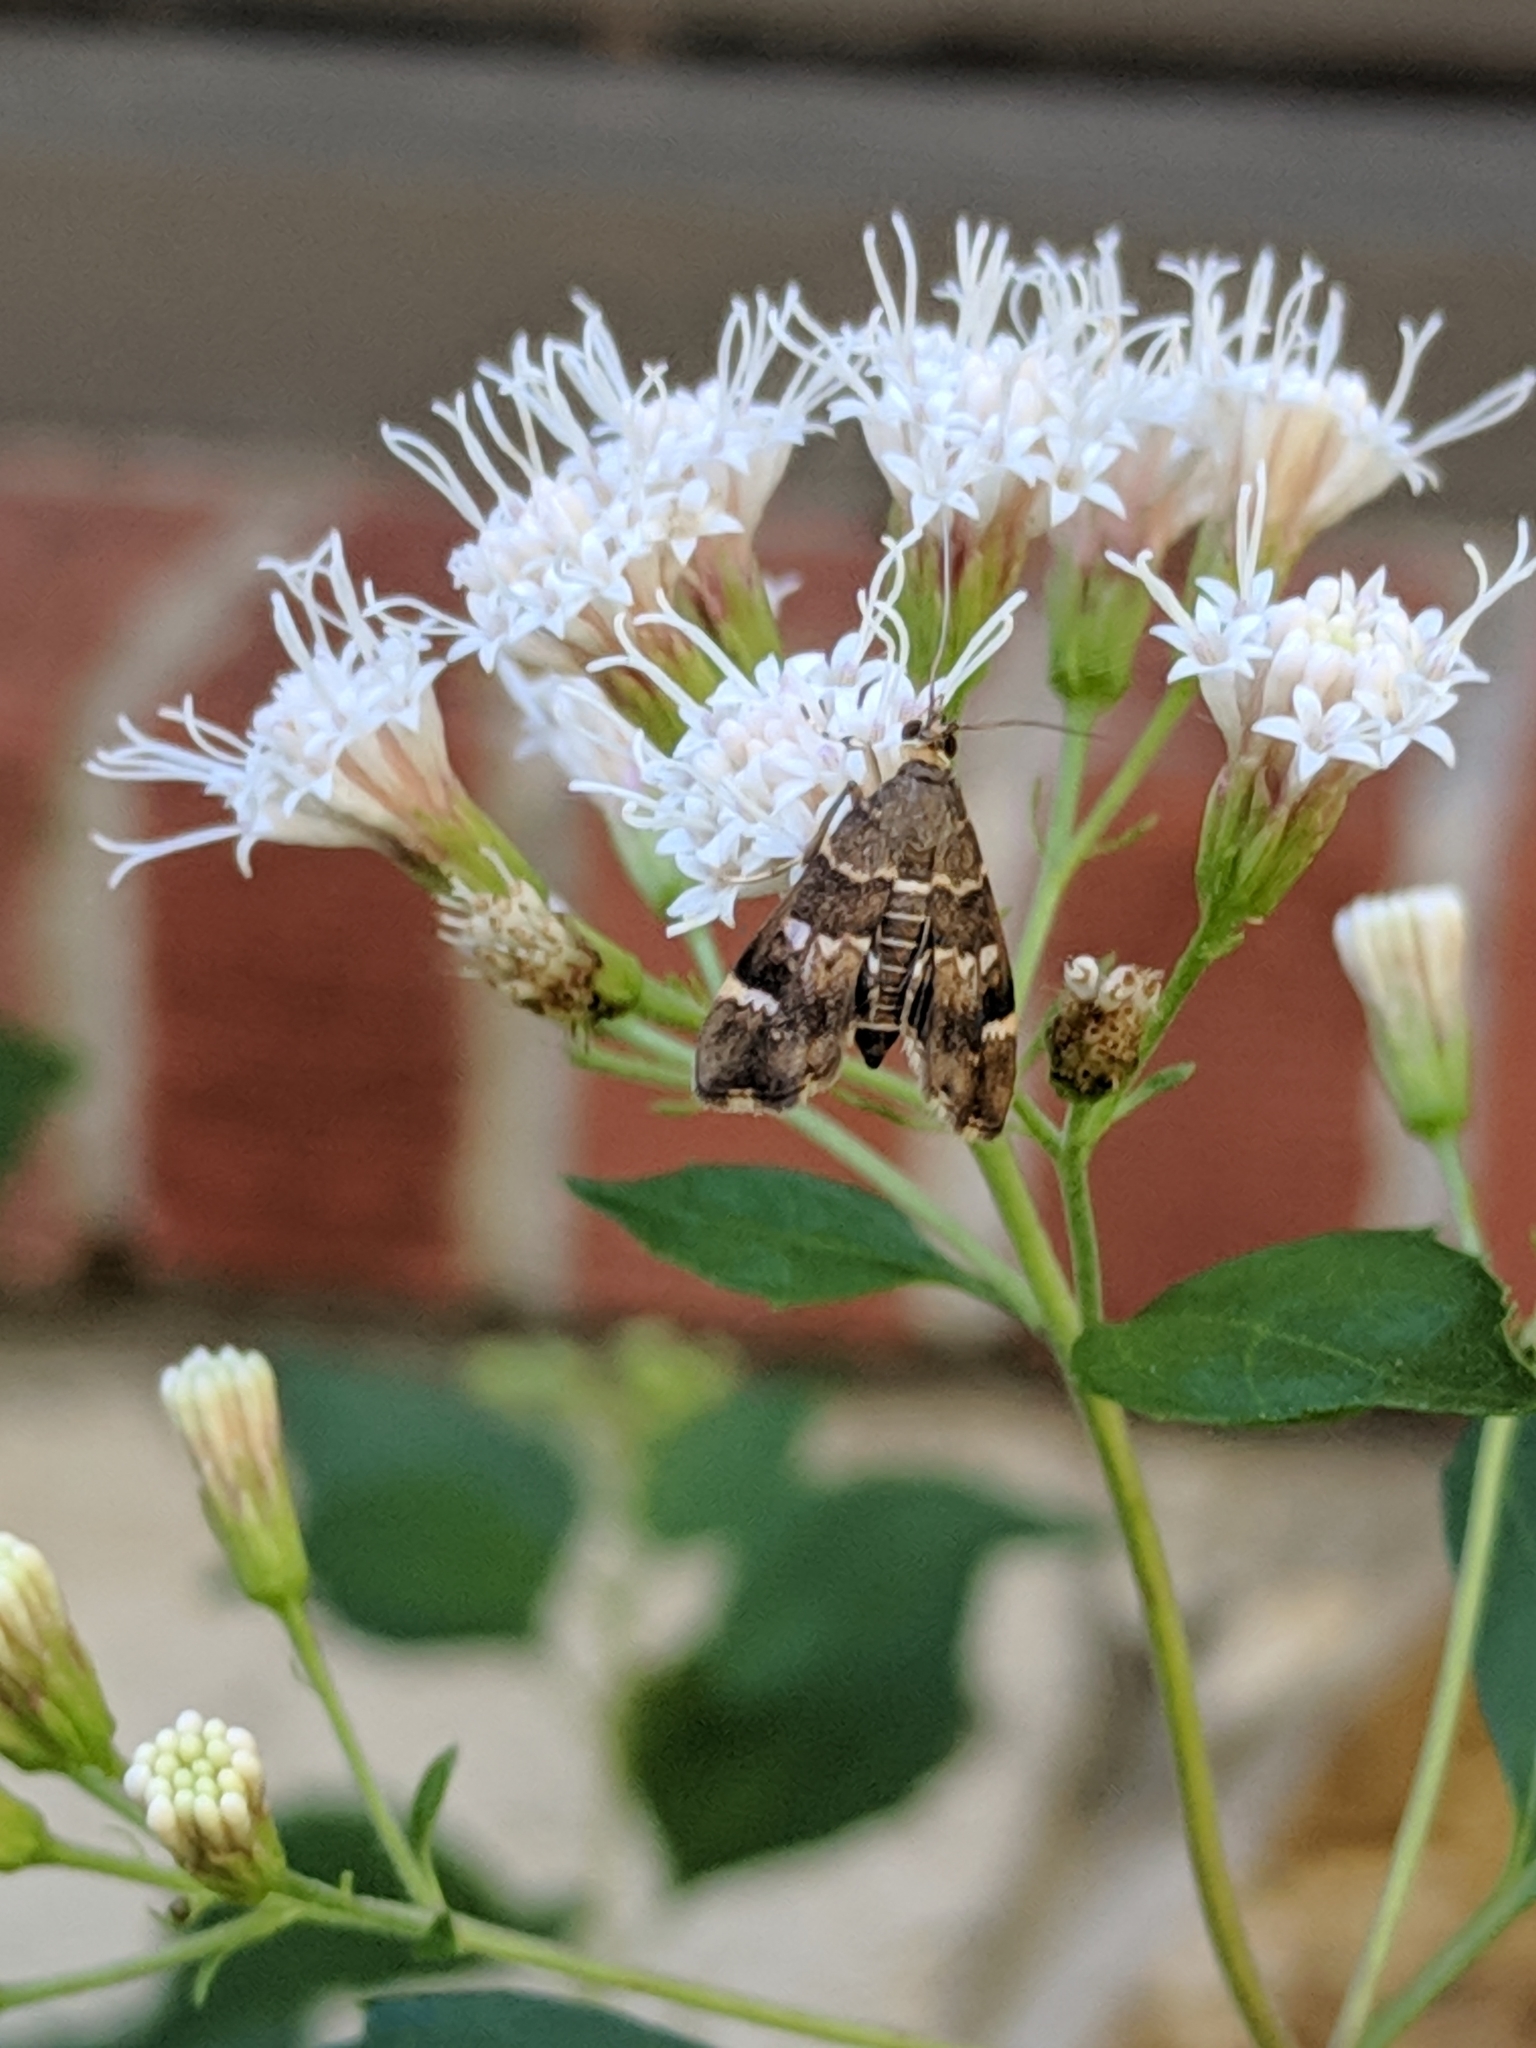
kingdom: Animalia
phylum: Arthropoda
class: Insecta
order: Lepidoptera
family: Crambidae
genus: Hymenia
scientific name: Hymenia perspectalis
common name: Spotted beet webworm
